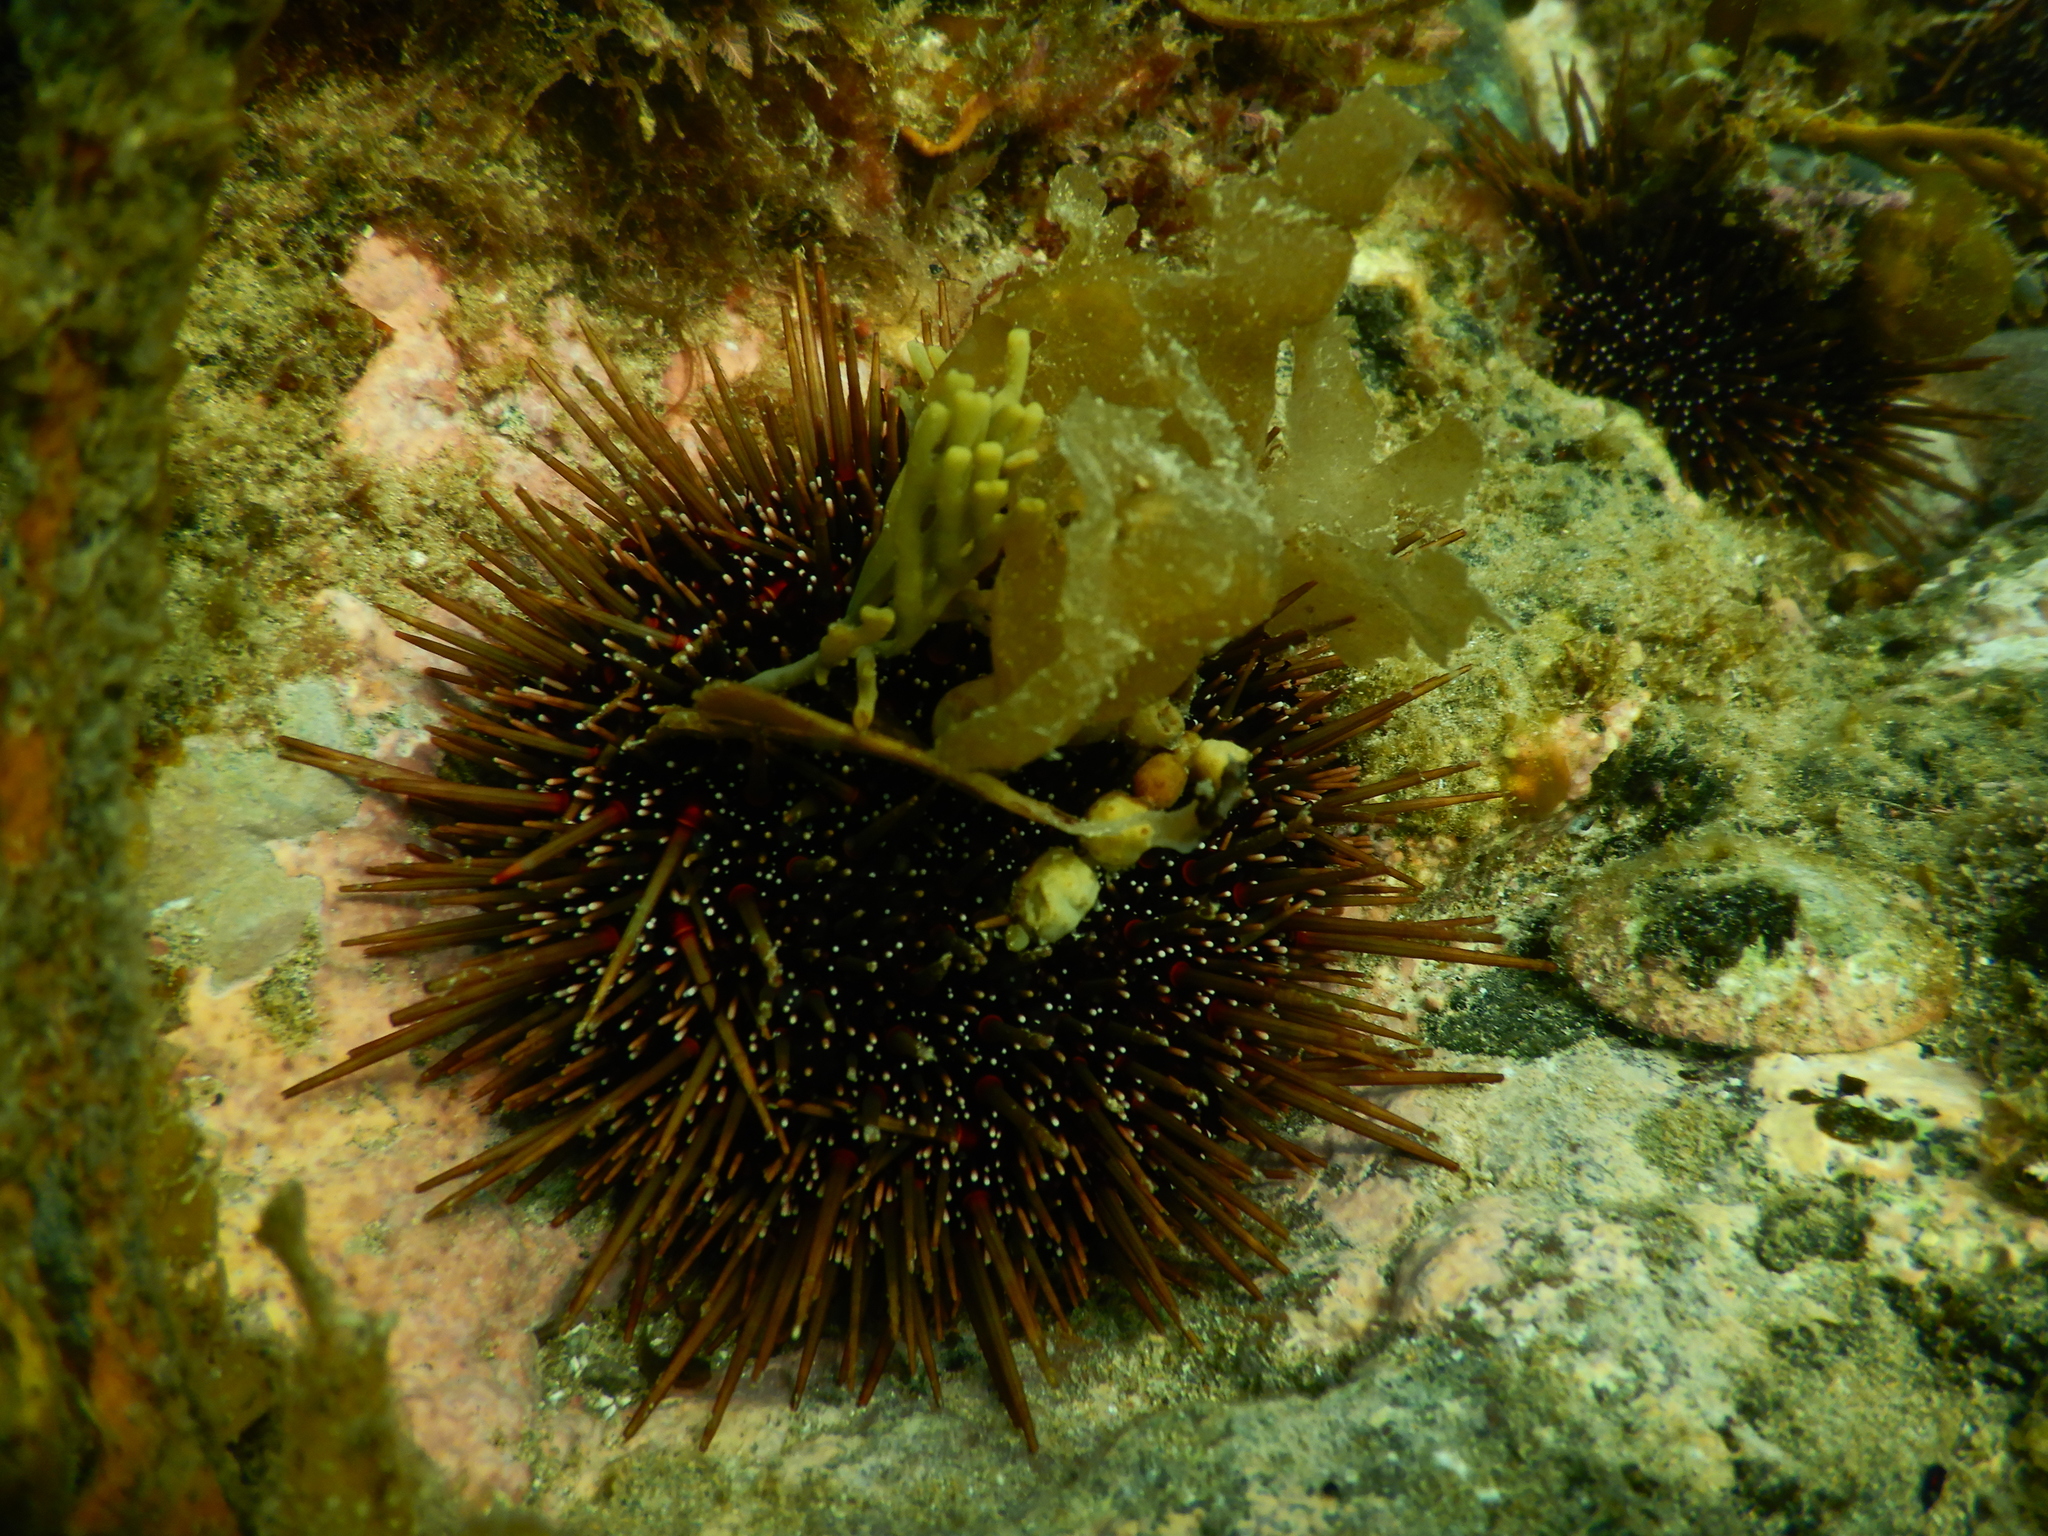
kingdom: Animalia
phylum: Echinodermata
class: Echinoidea
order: Camarodonta
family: Echinometridae
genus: Evechinus
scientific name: Evechinus chloroticus
